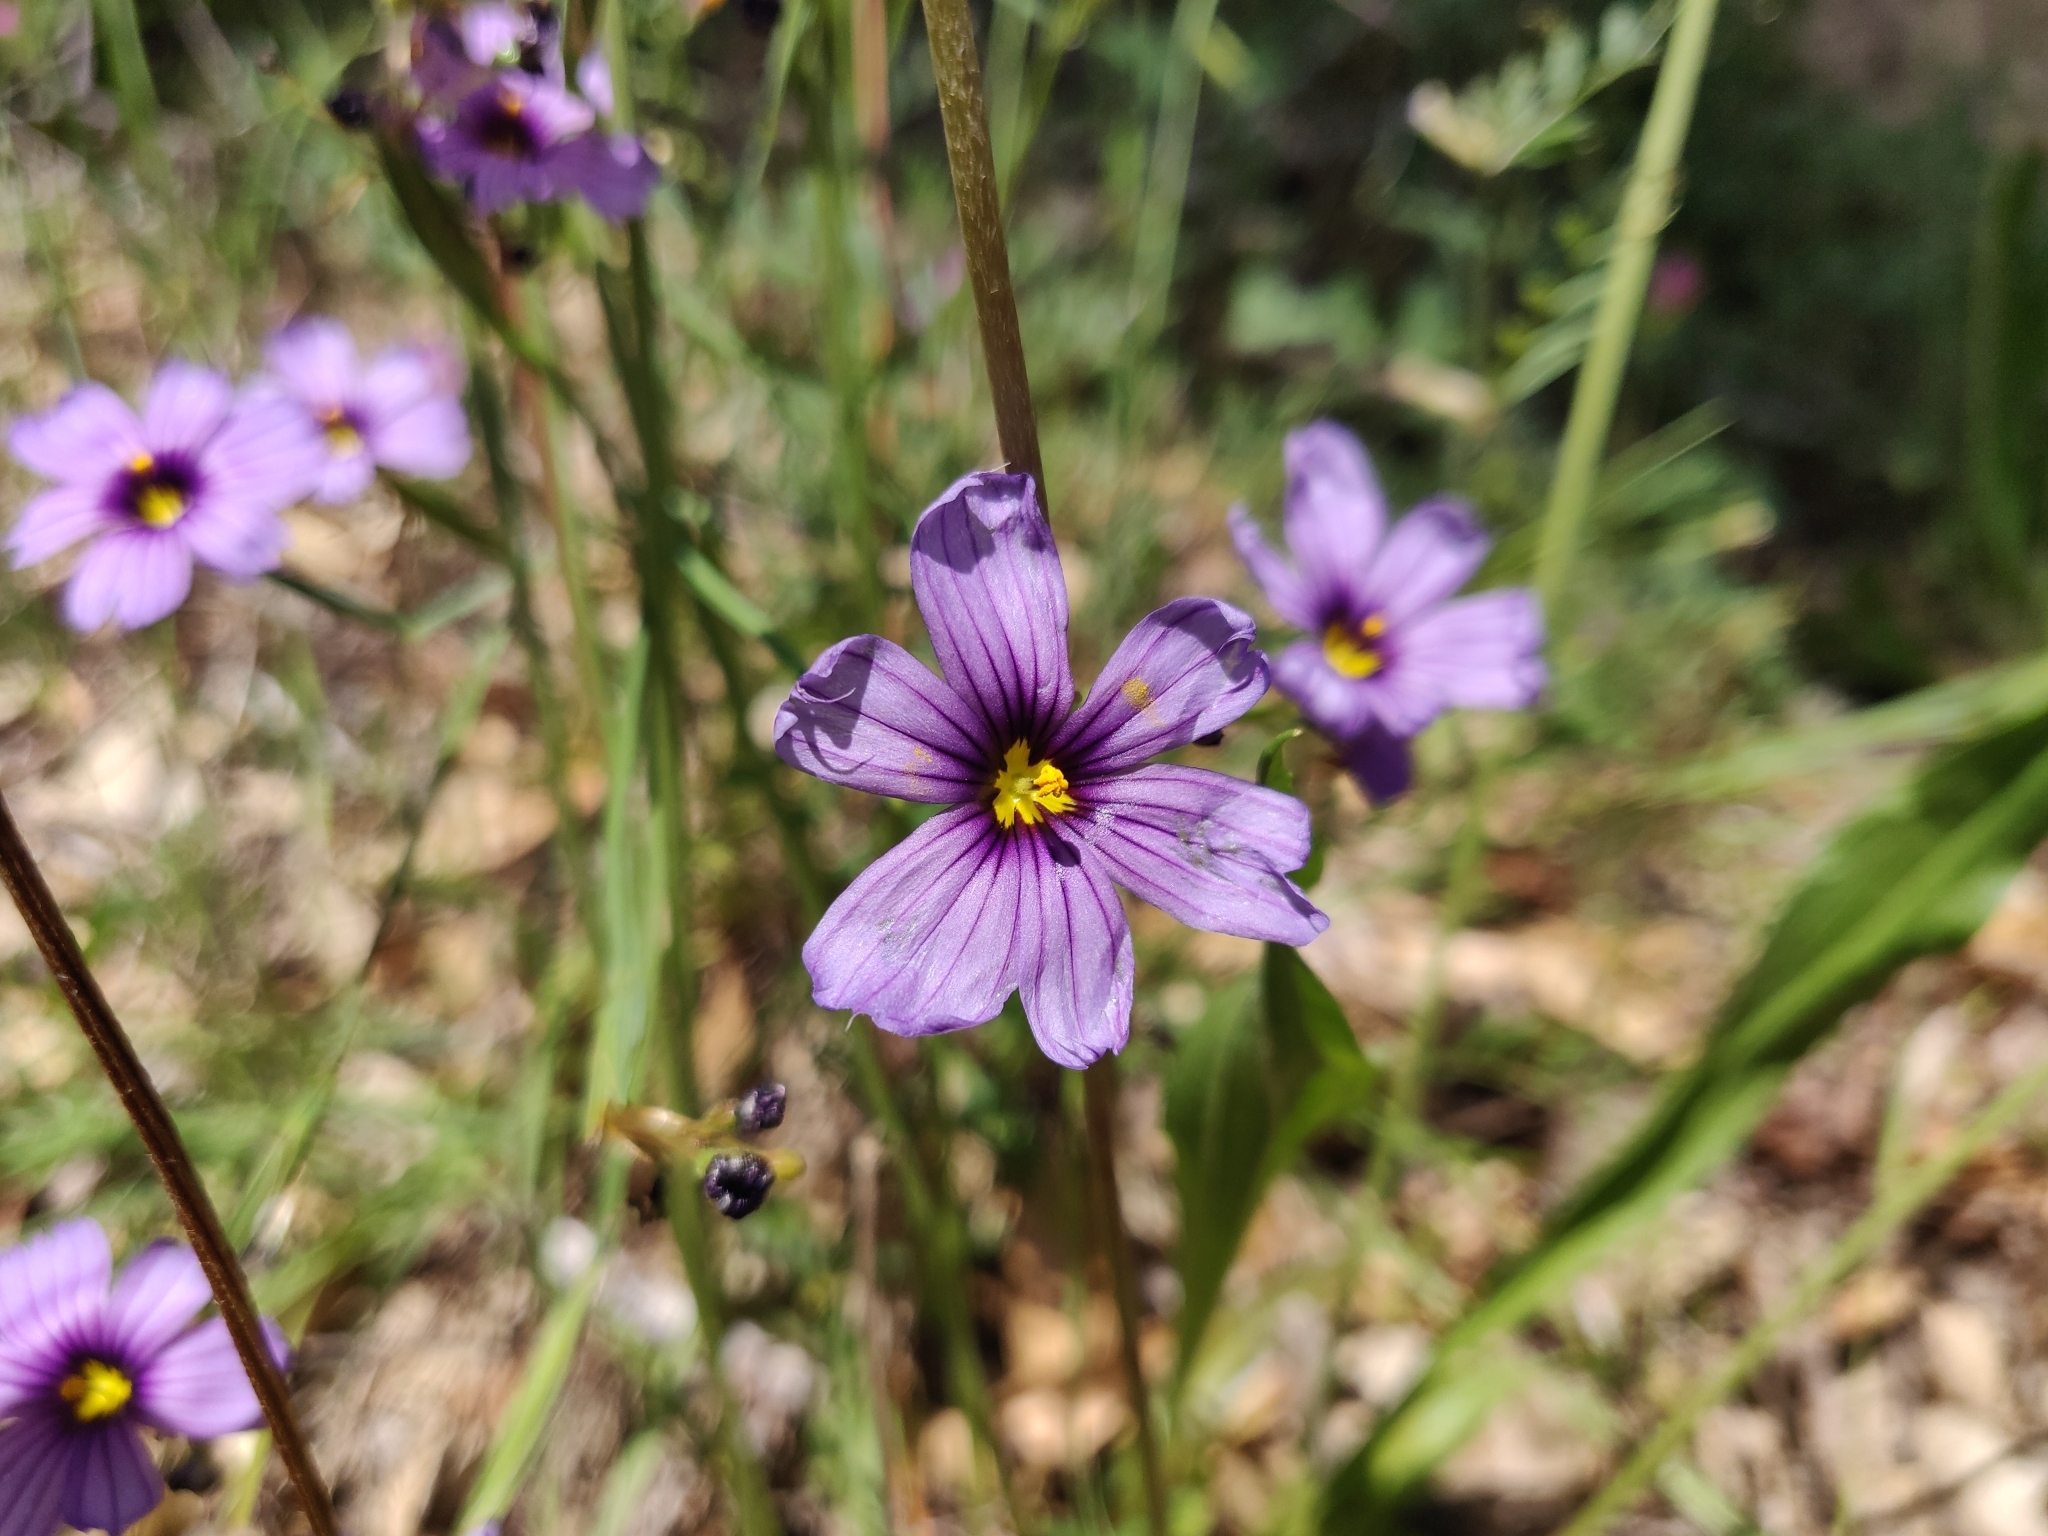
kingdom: Plantae
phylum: Tracheophyta
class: Liliopsida
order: Asparagales
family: Iridaceae
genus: Sisyrinchium
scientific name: Sisyrinchium bellum
